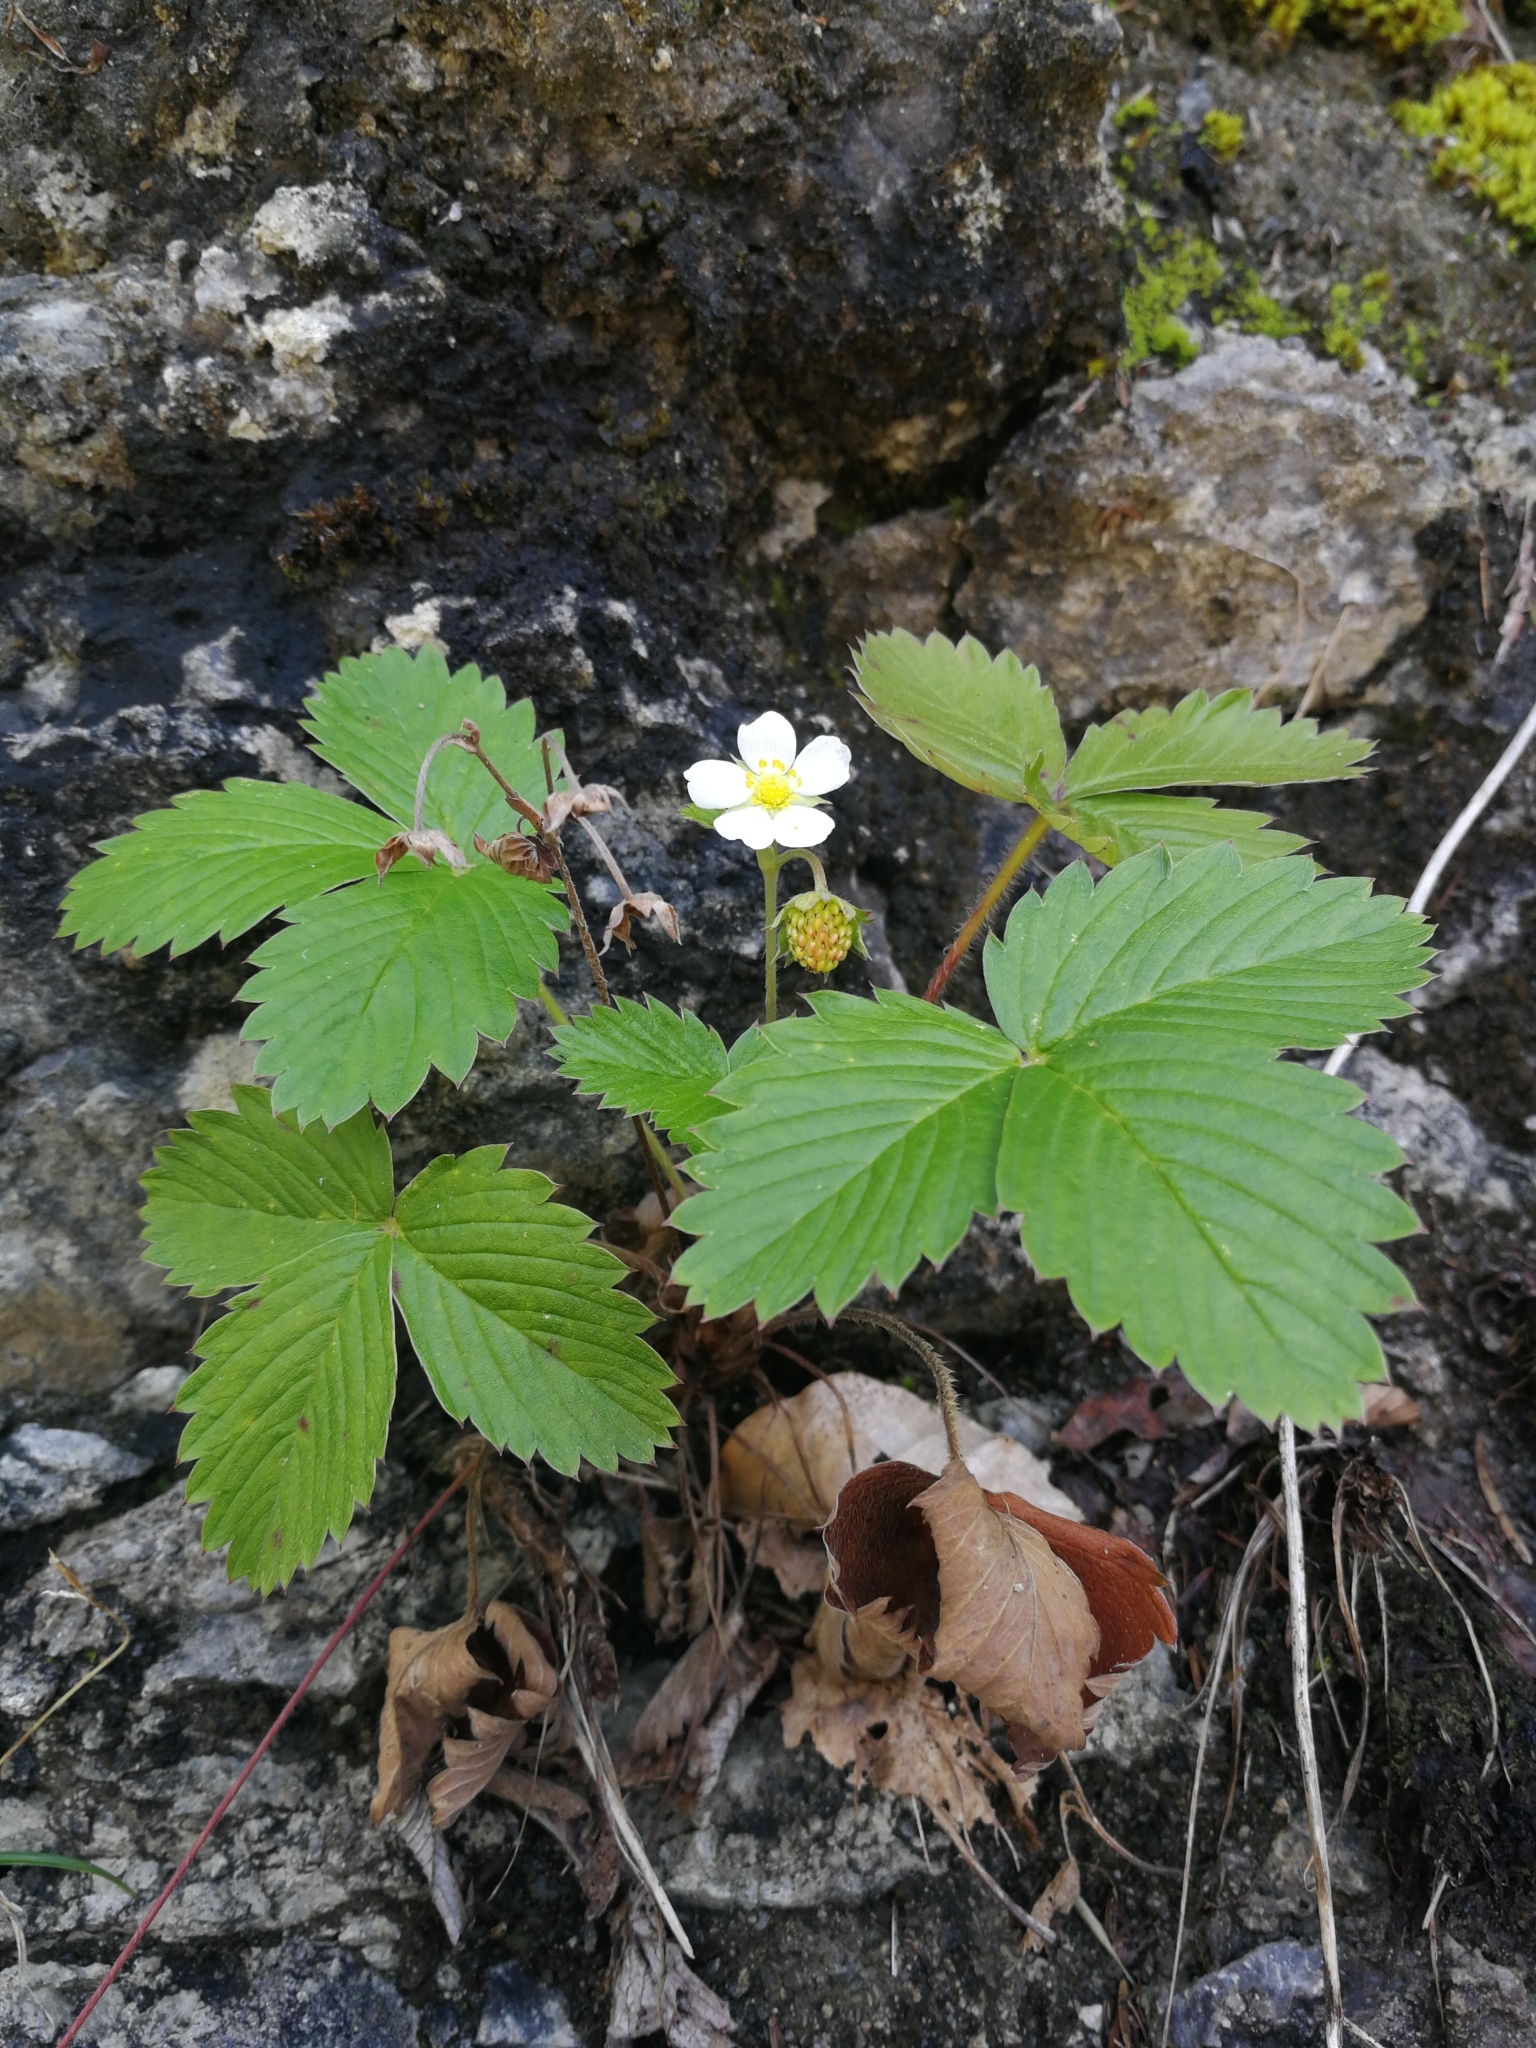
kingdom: Plantae
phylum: Tracheophyta
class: Magnoliopsida
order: Rosales
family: Rosaceae
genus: Fragaria
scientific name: Fragaria vesca
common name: Wild strawberry
